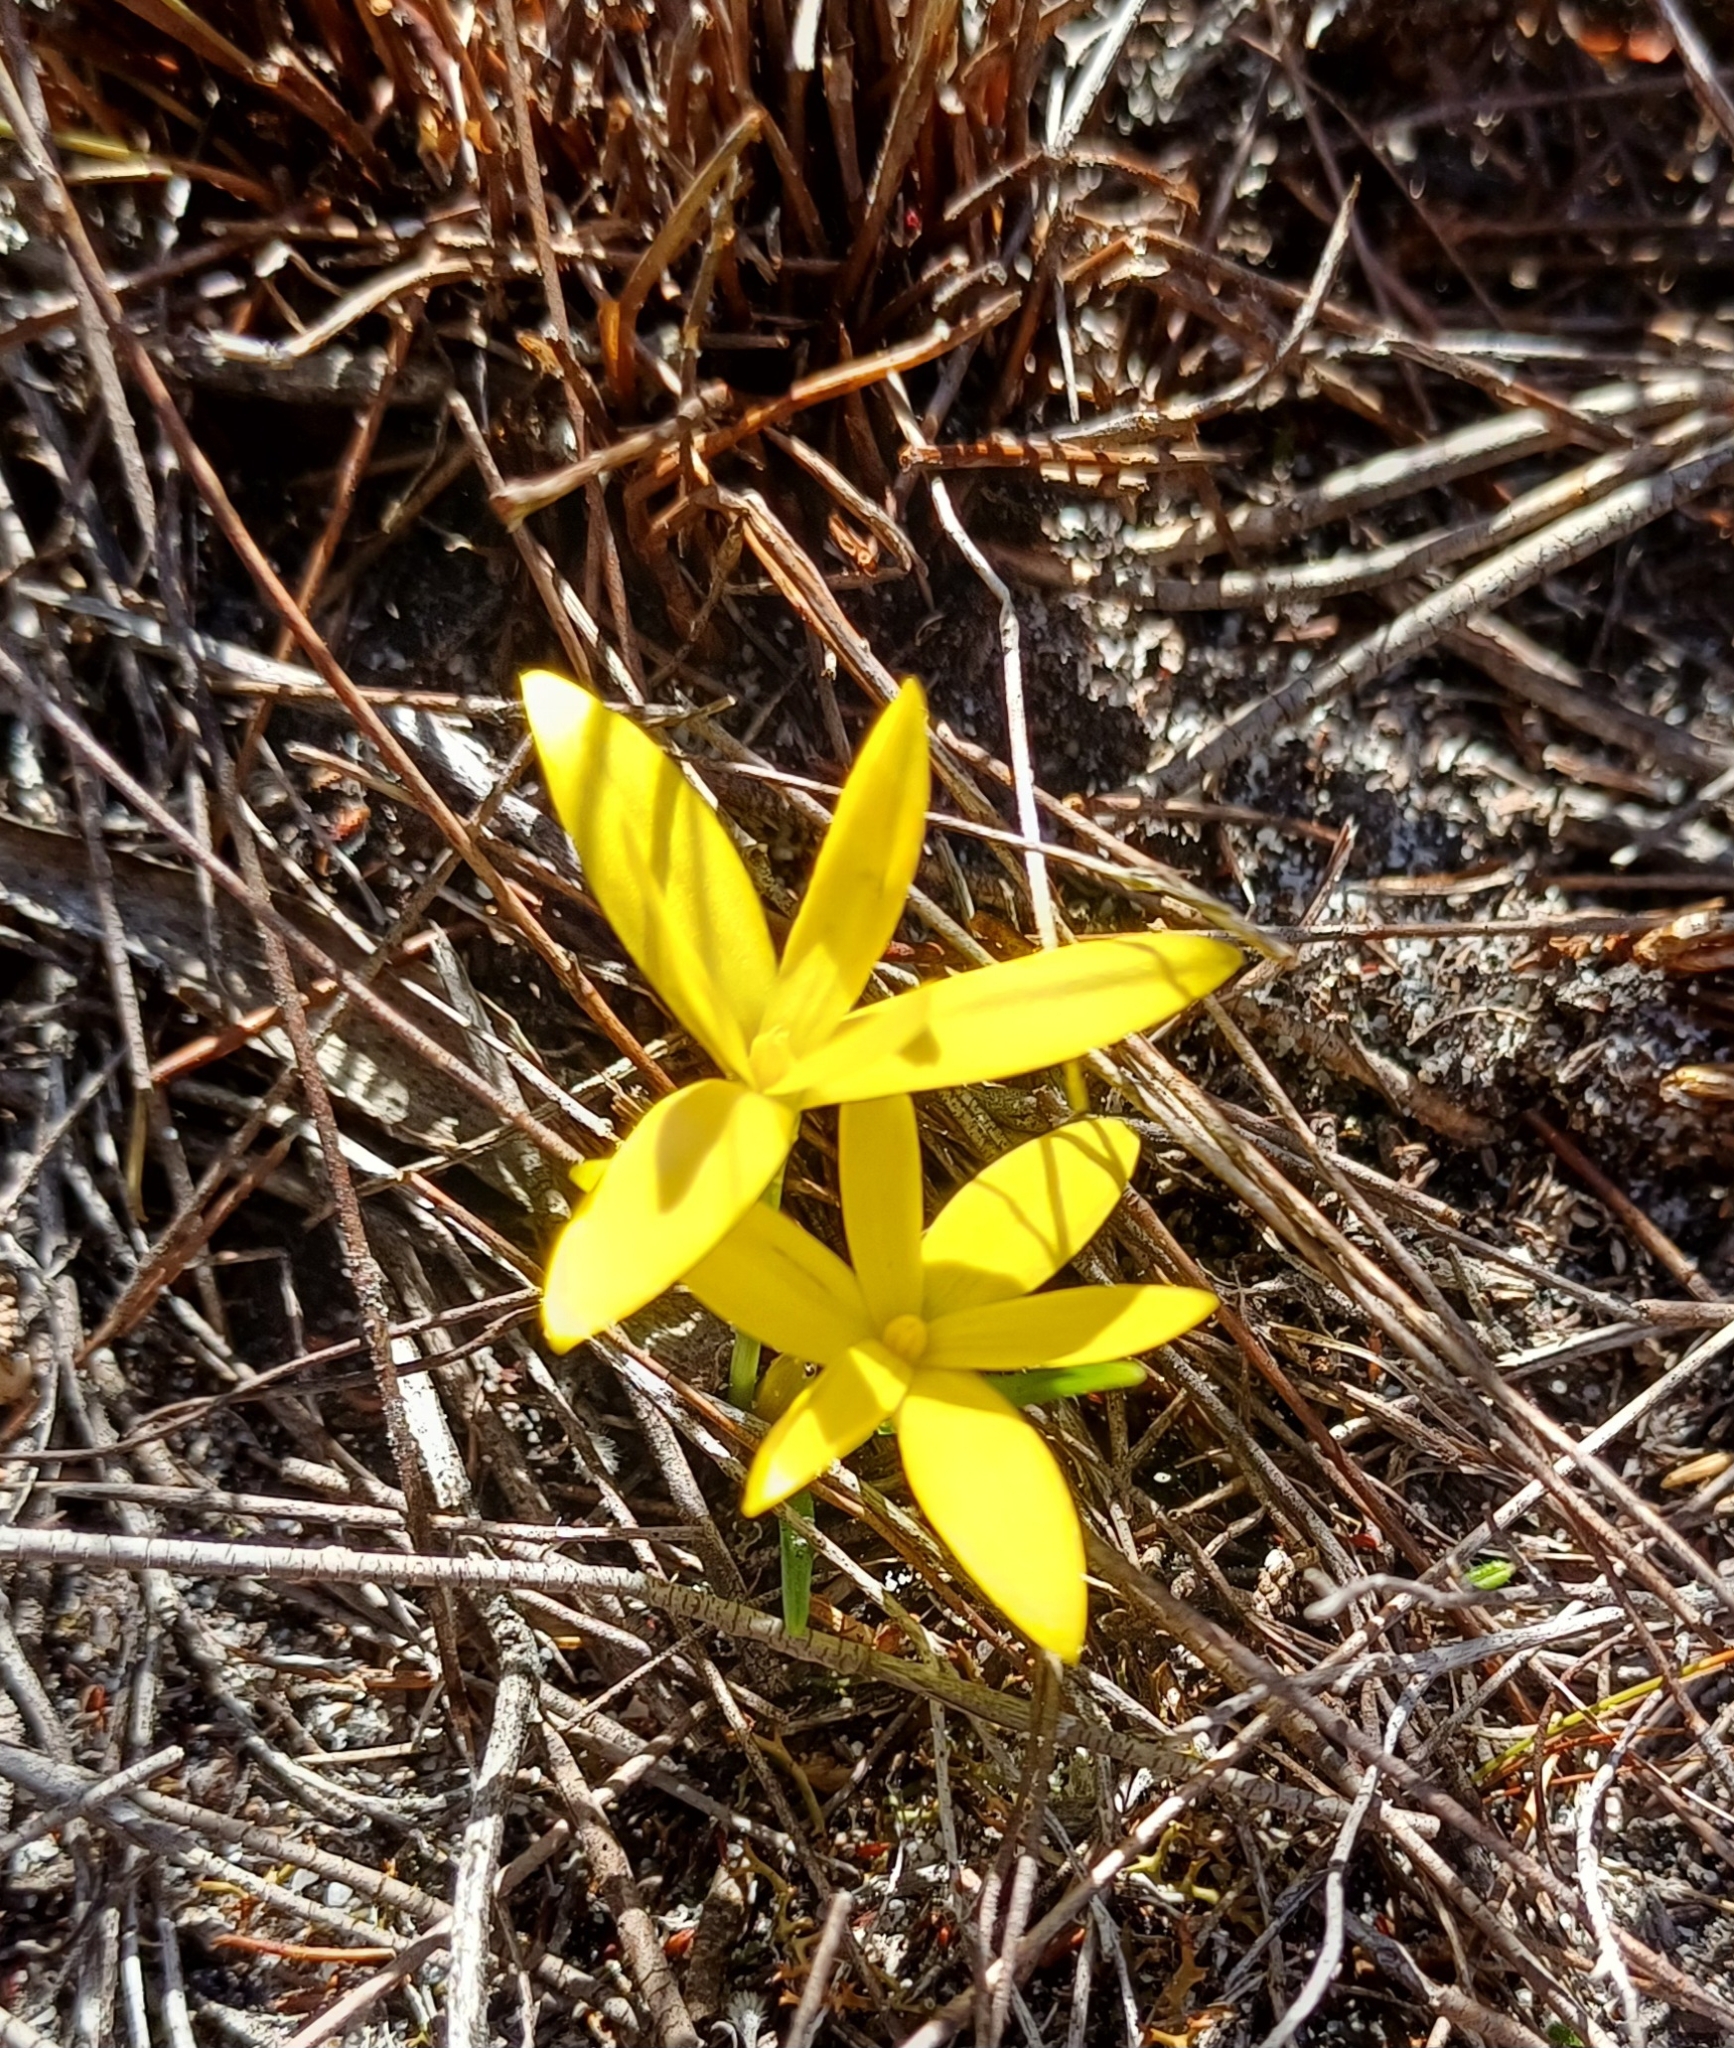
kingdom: Plantae
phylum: Tracheophyta
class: Liliopsida
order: Asparagales
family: Hypoxidaceae
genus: Pauridia
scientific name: Pauridia monophylla
